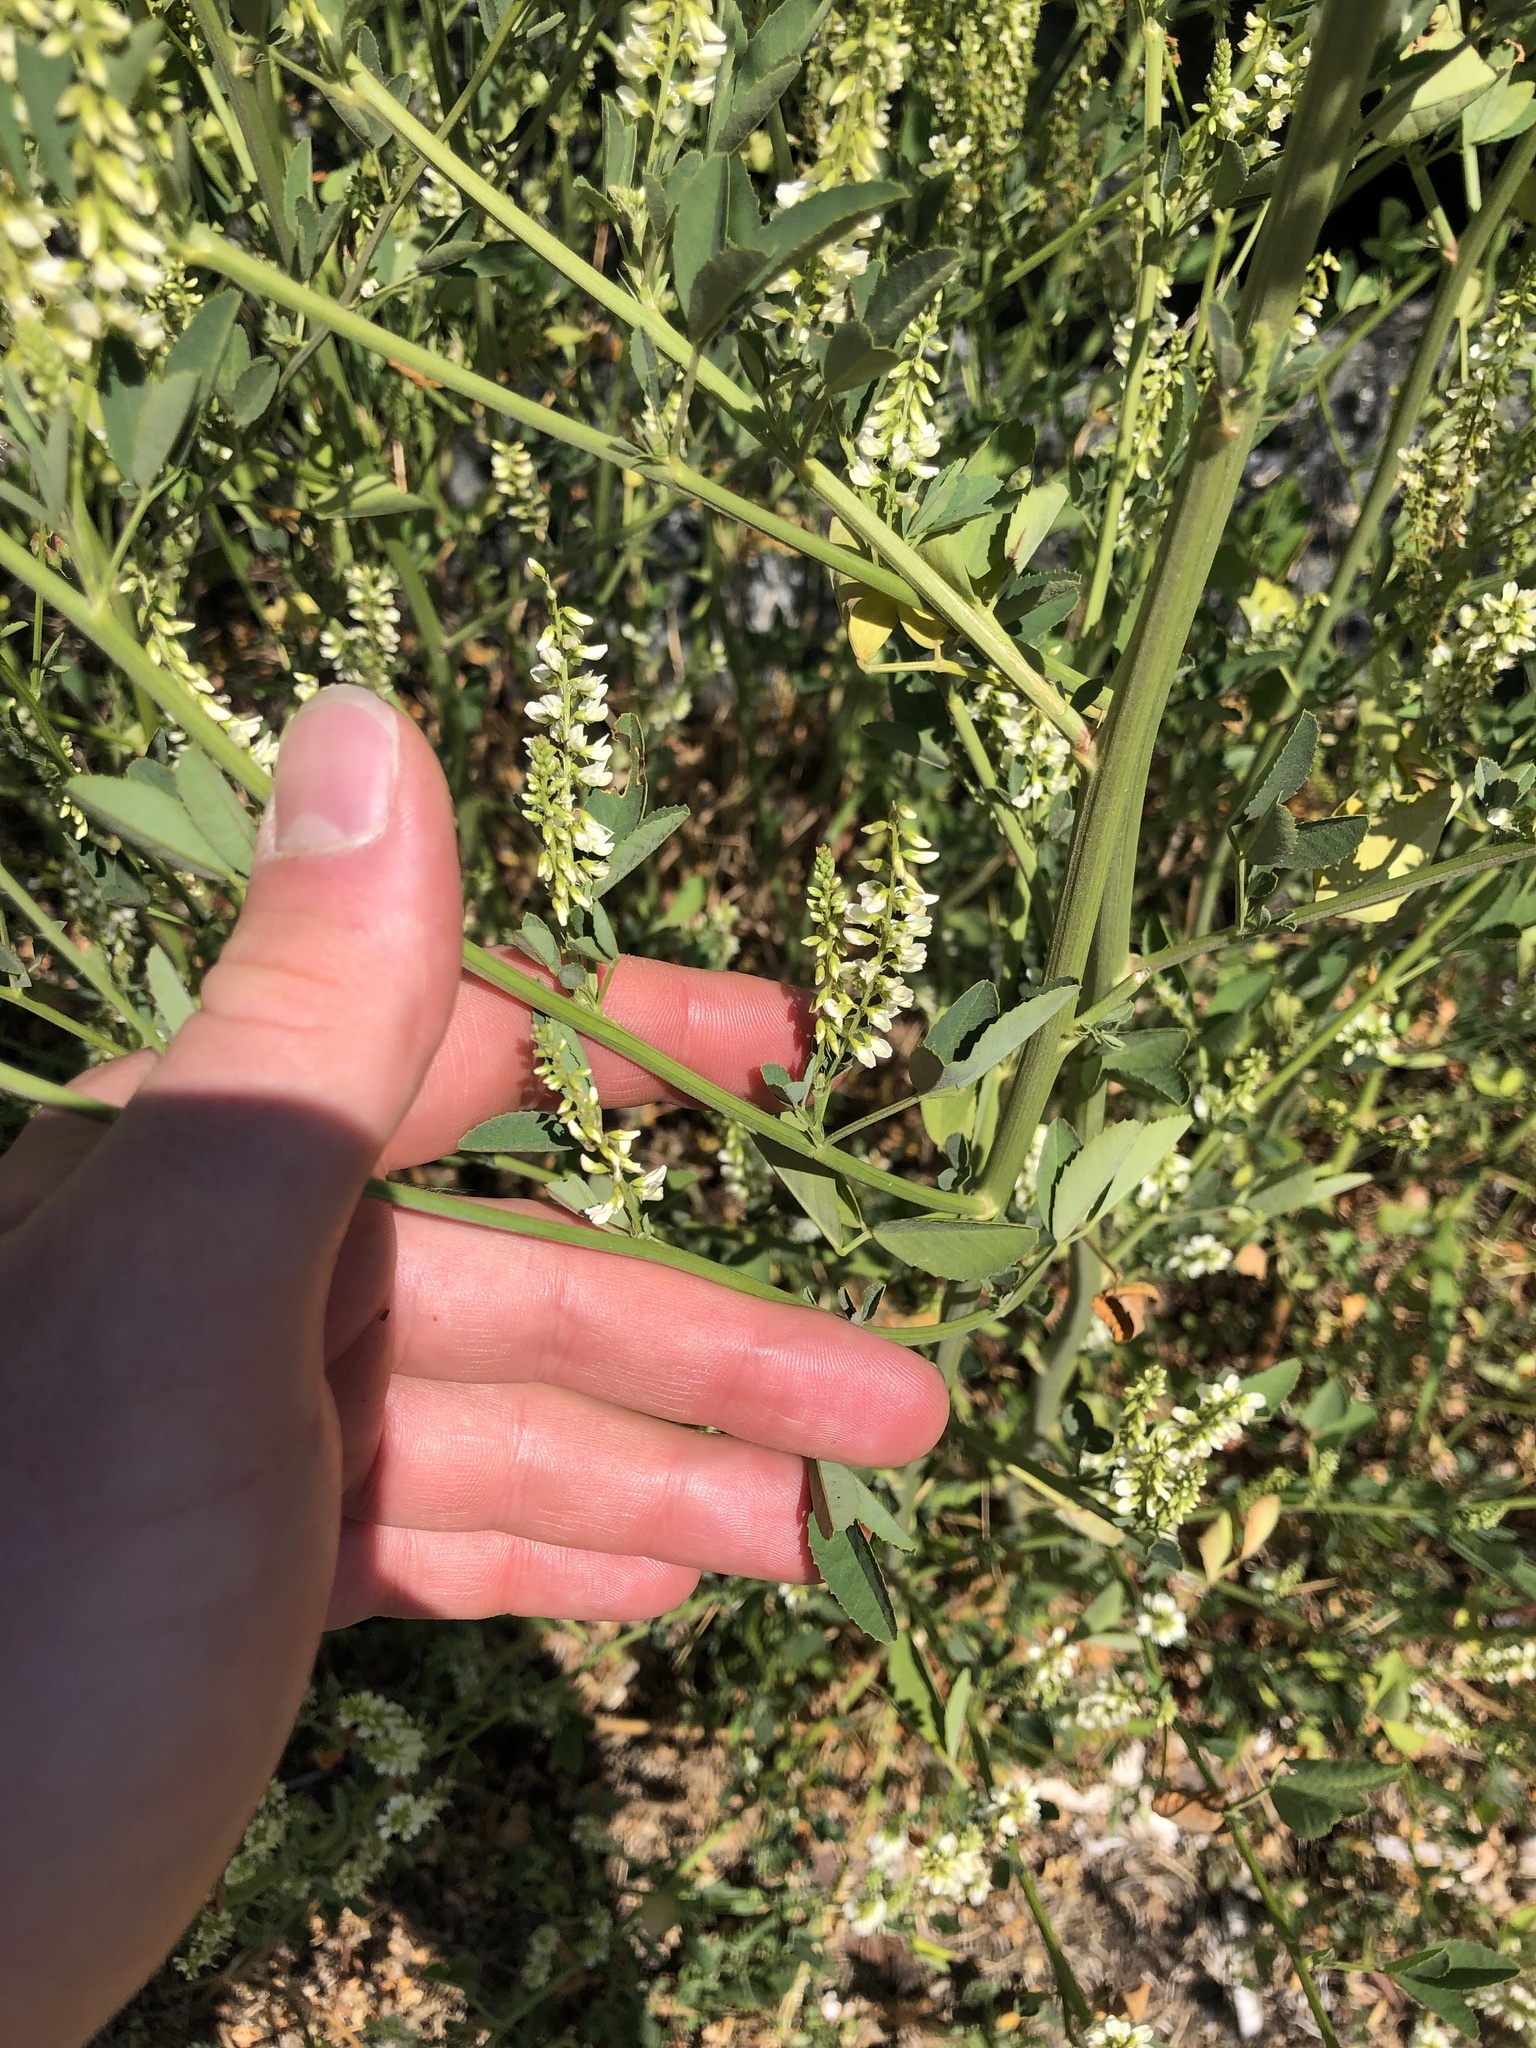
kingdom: Plantae
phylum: Tracheophyta
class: Magnoliopsida
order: Fabales
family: Fabaceae
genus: Melilotus
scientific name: Melilotus albus
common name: White melilot
